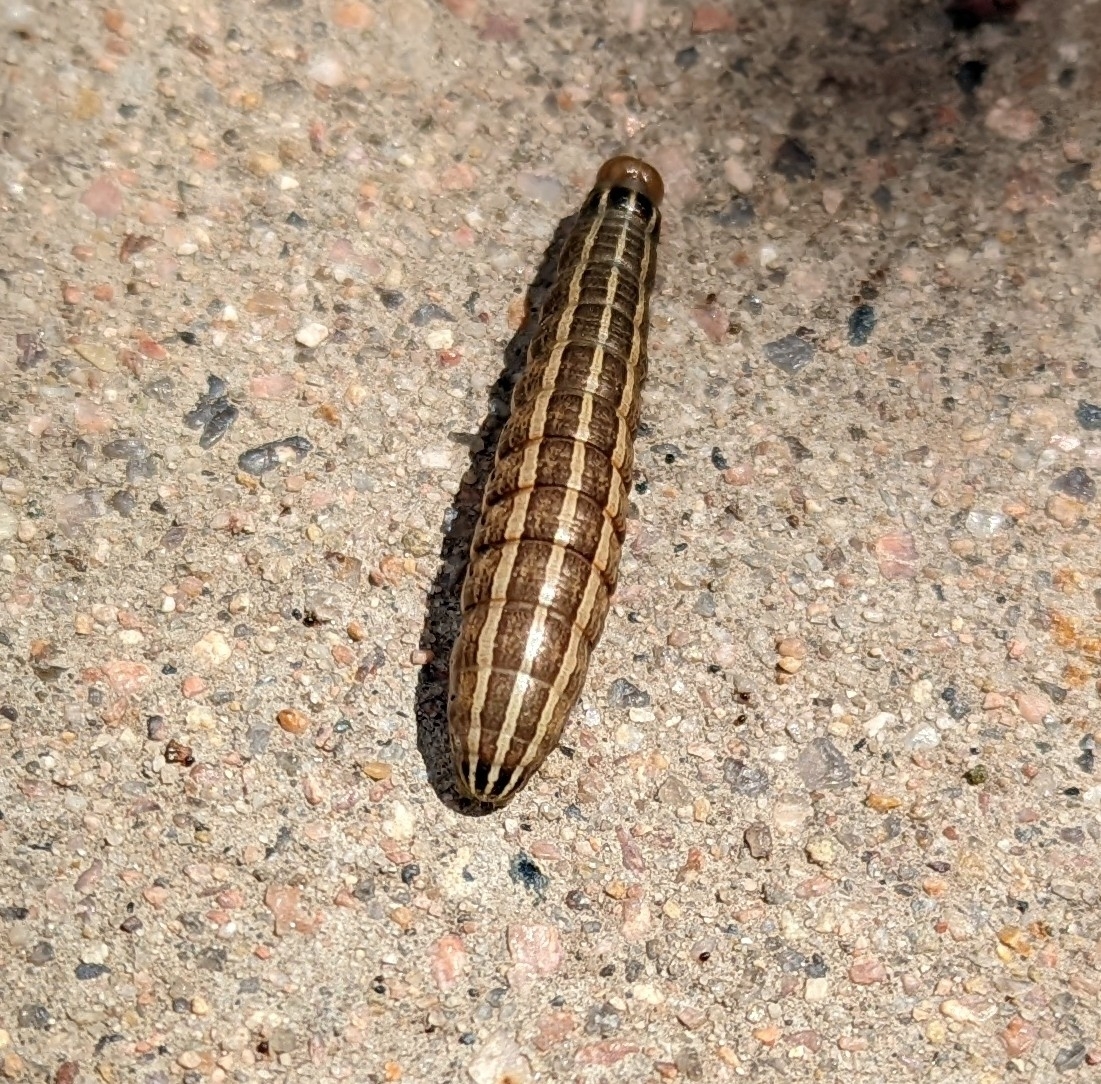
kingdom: Animalia
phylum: Arthropoda
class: Insecta
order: Lepidoptera
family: Noctuidae
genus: Nephelodes
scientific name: Nephelodes minians
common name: Bronzed cutworm
